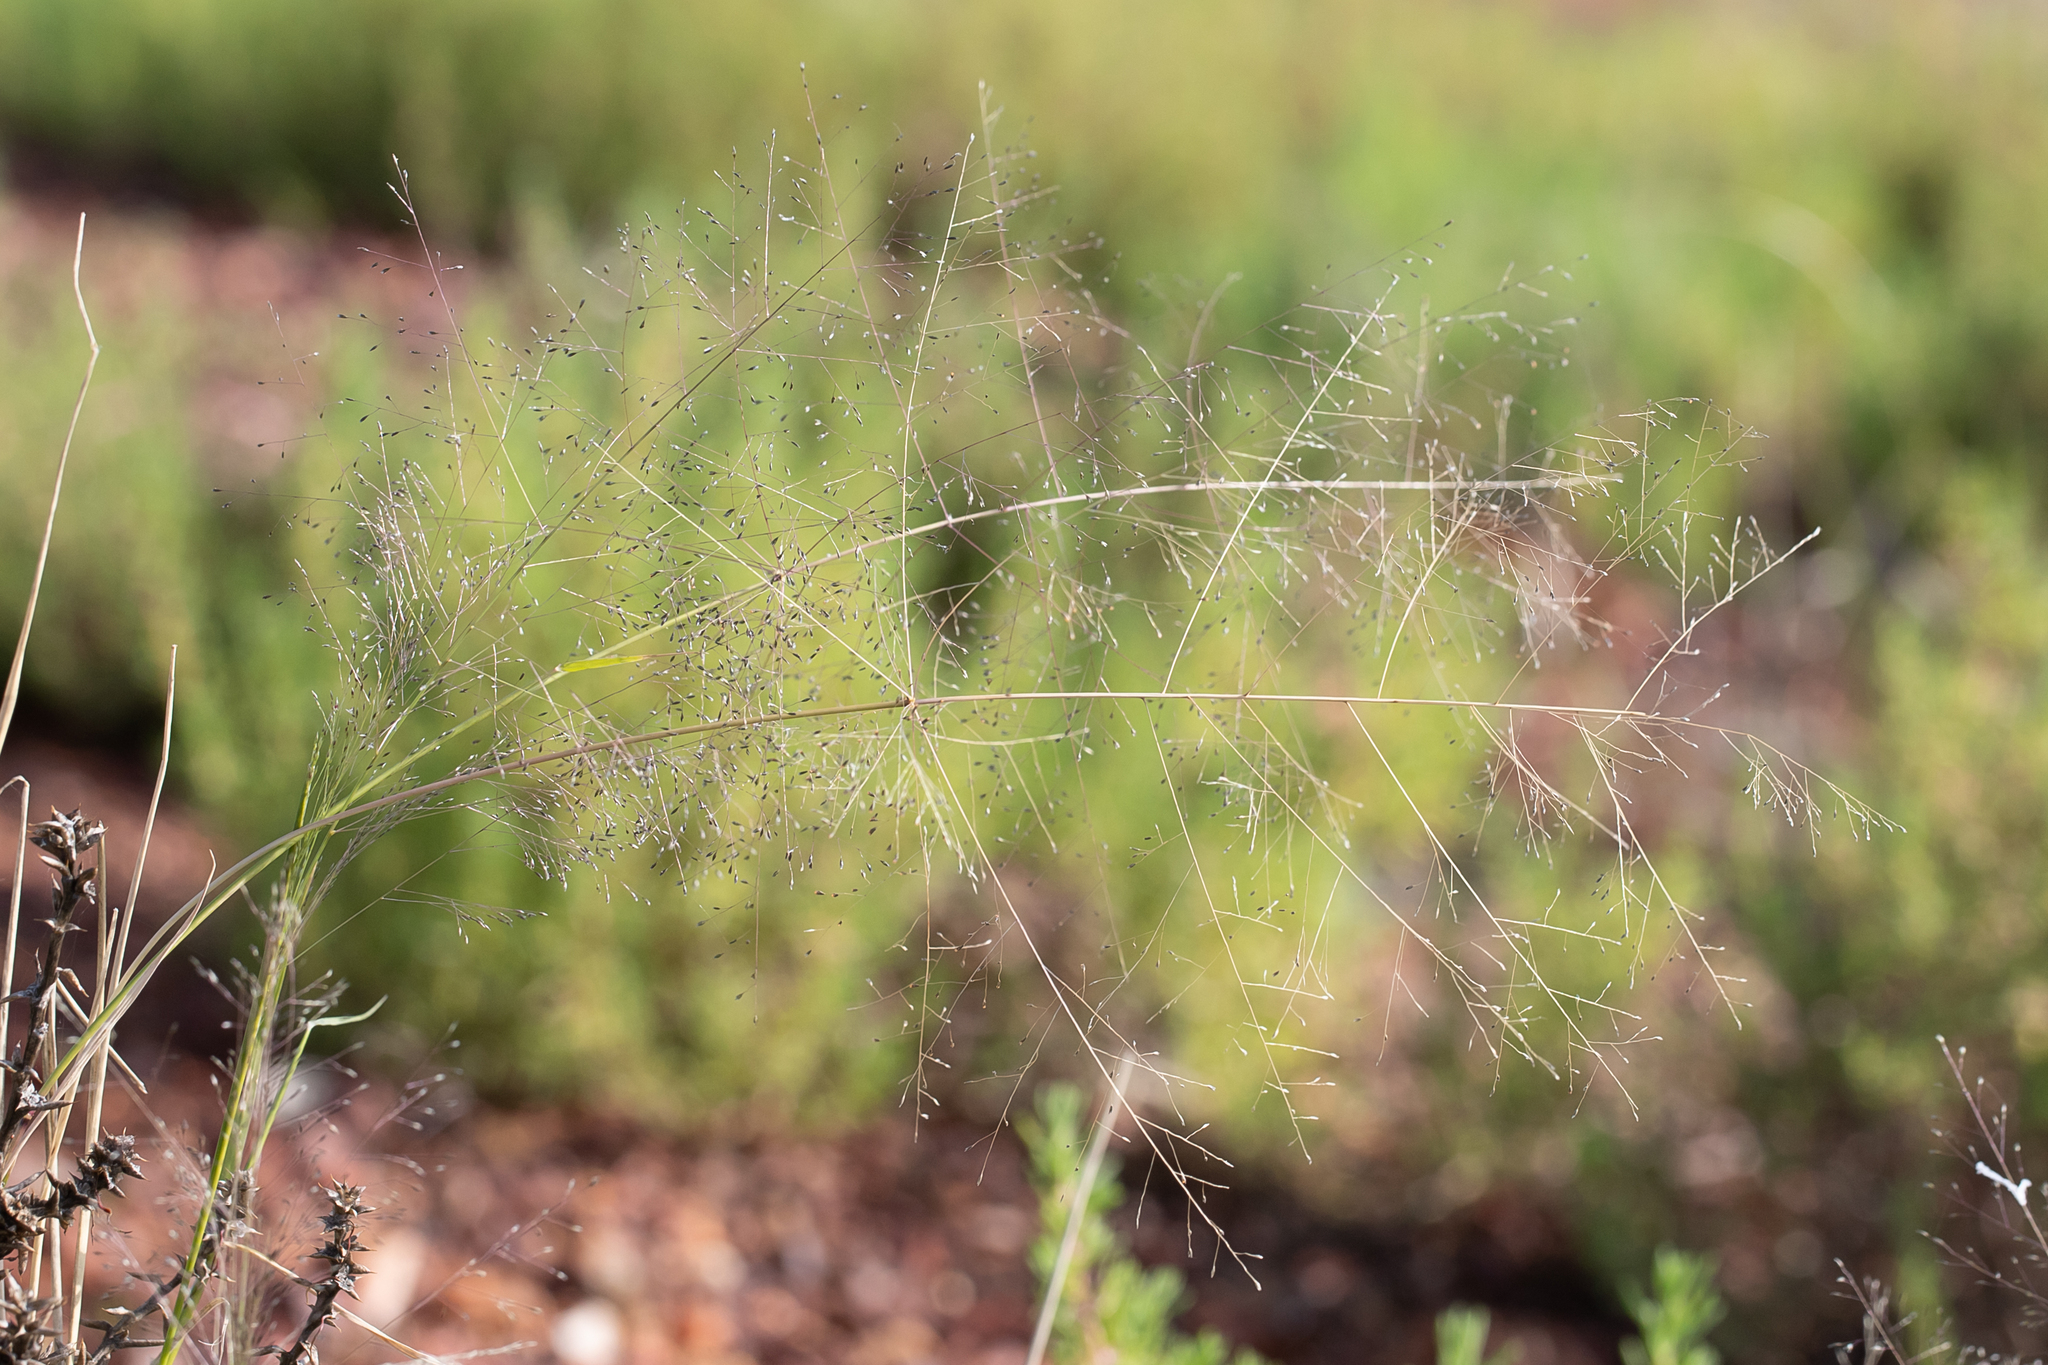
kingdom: Plantae
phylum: Tracheophyta
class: Liliopsida
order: Poales
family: Poaceae
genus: Sporobolus
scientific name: Sporobolus caroli
